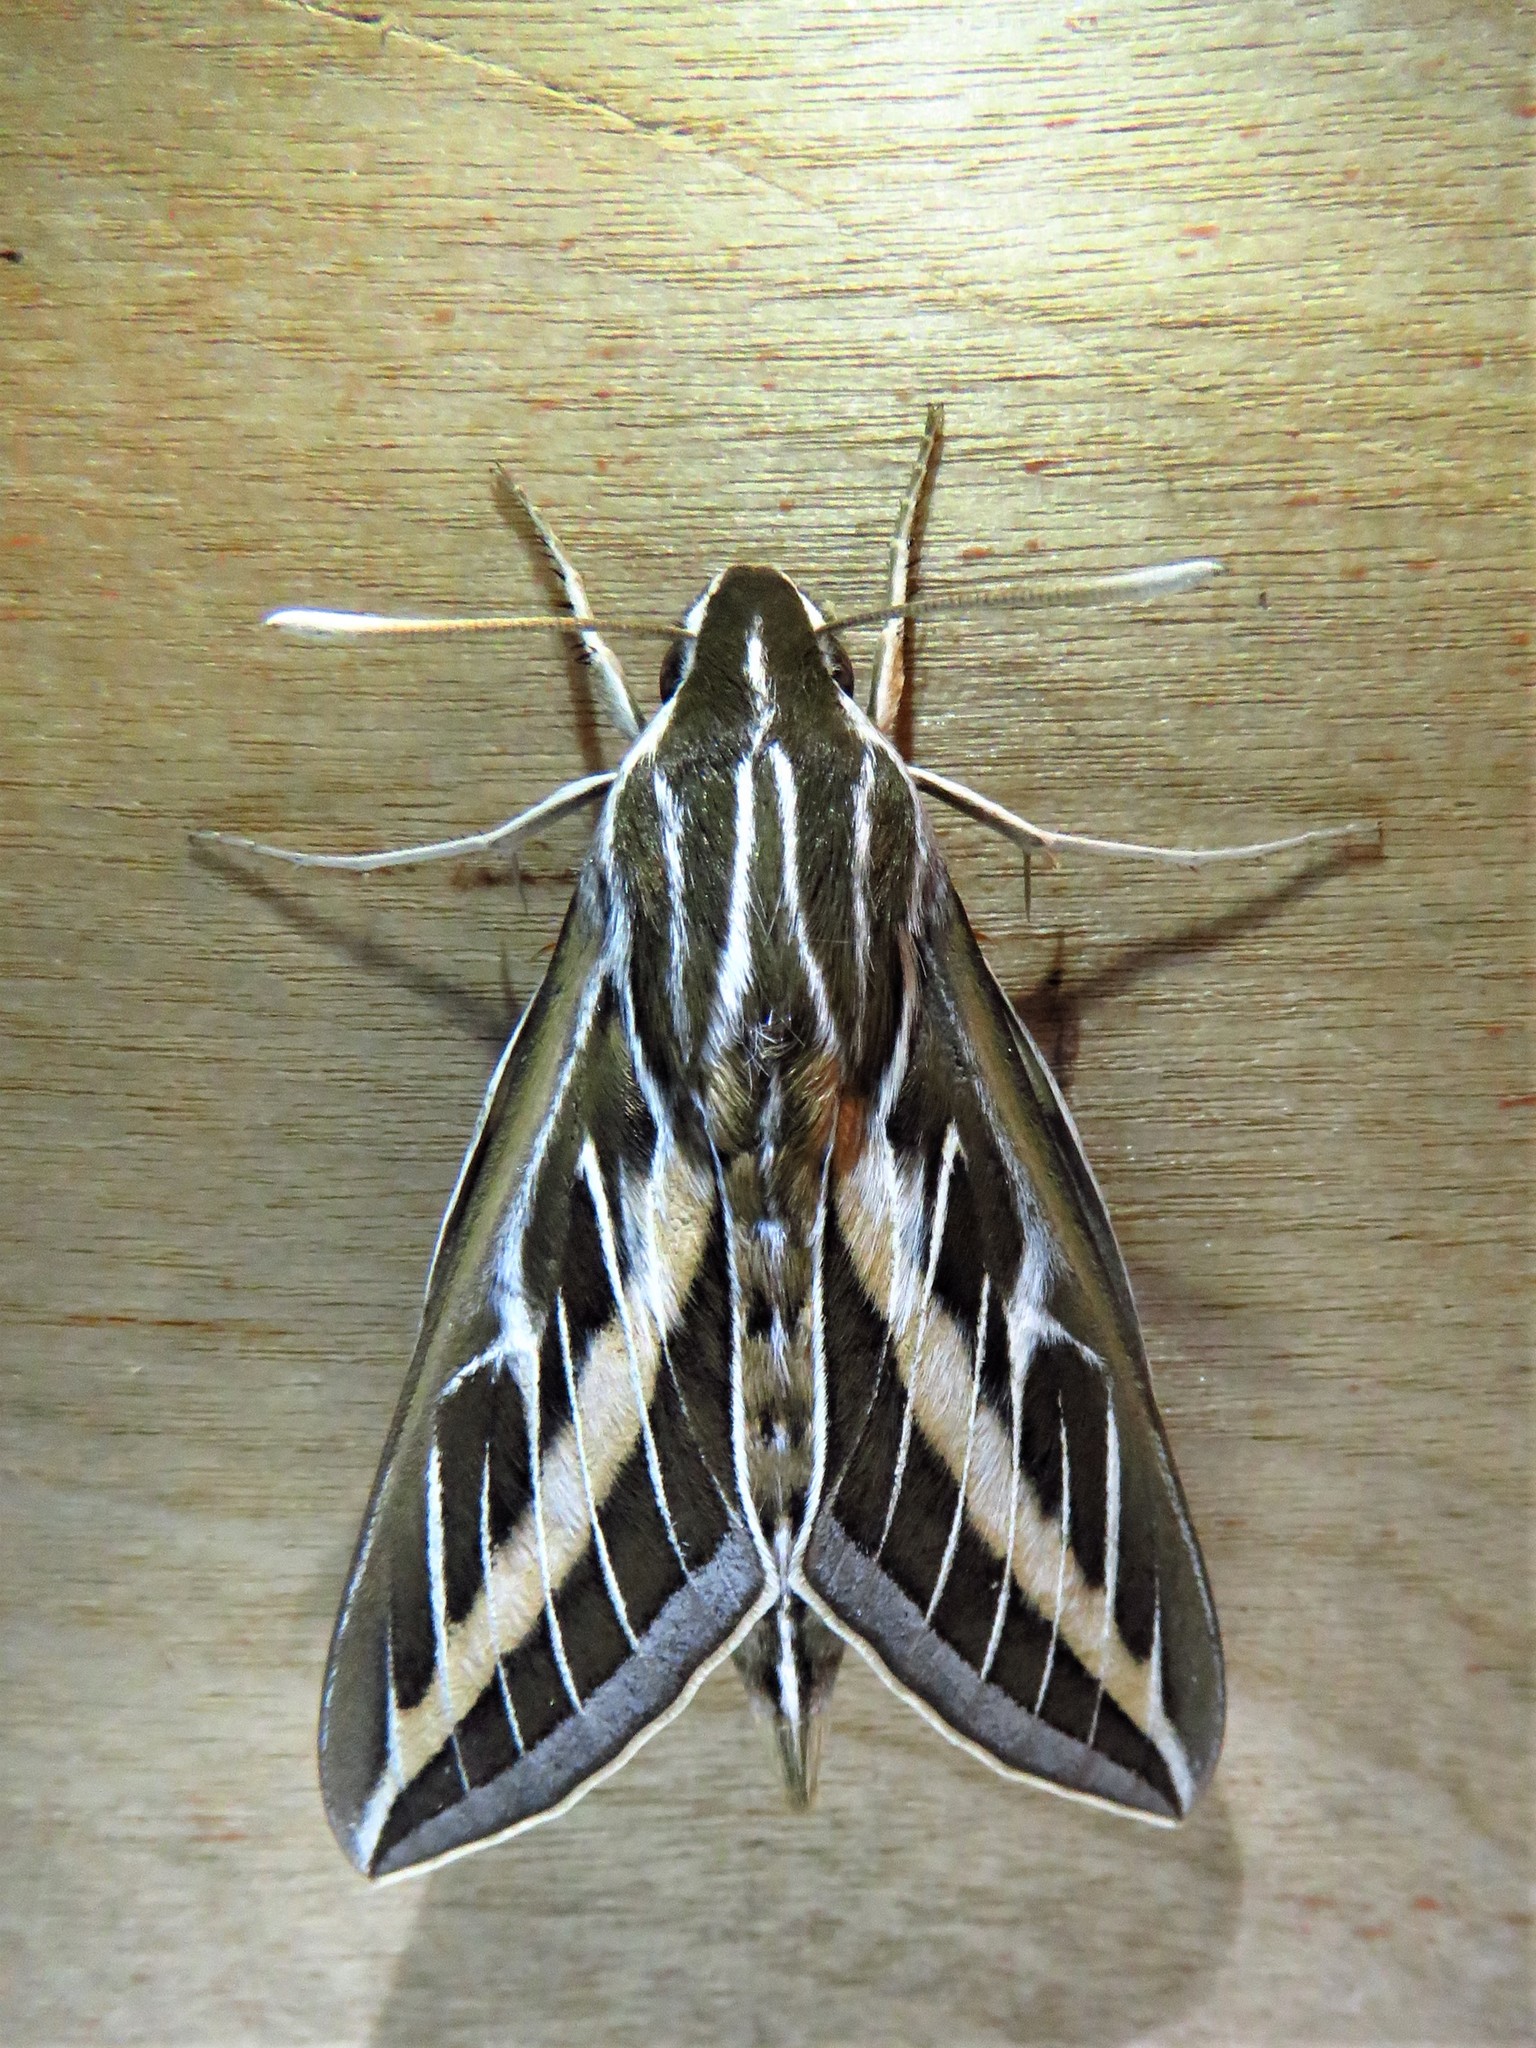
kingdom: Animalia
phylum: Arthropoda
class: Insecta
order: Lepidoptera
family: Sphingidae
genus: Hyles
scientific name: Hyles lineata
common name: White-lined sphinx
